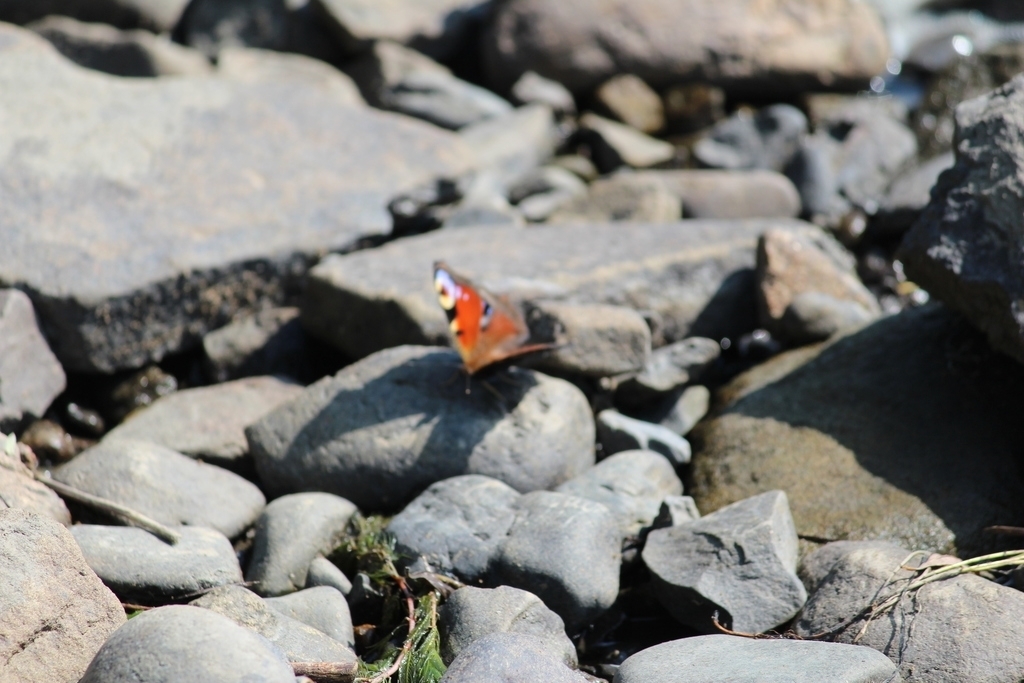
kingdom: Animalia
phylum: Arthropoda
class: Insecta
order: Lepidoptera
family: Nymphalidae
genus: Aglais
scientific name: Aglais io
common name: Peacock
